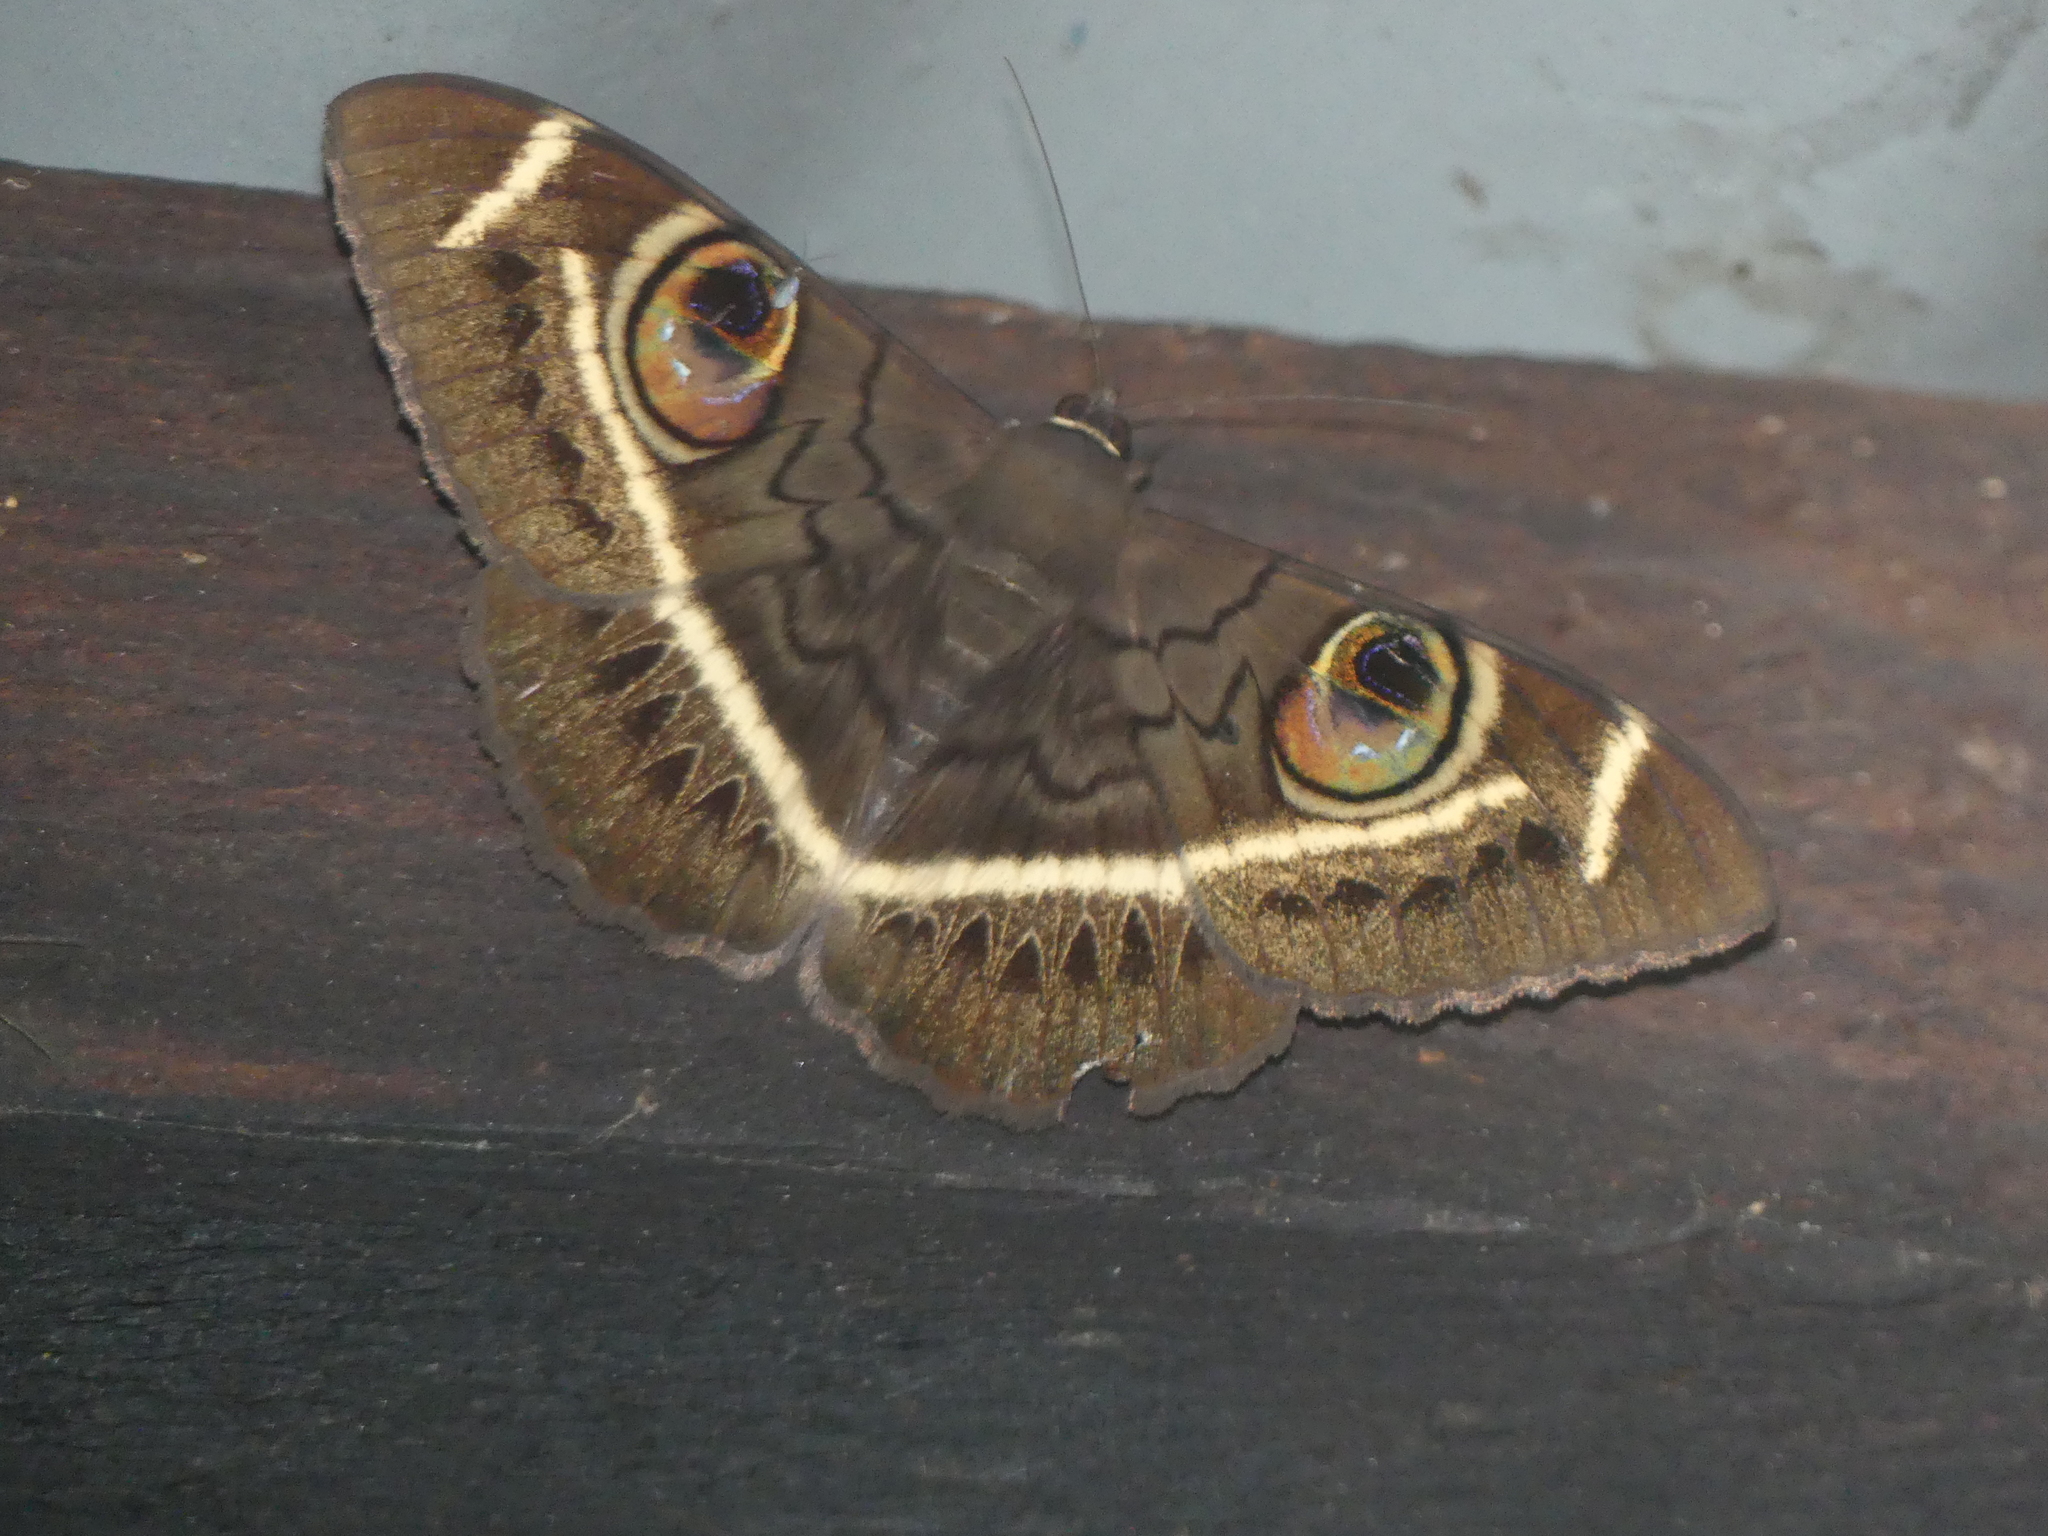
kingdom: Animalia
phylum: Arthropoda
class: Insecta
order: Lepidoptera
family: Erebidae
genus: Cyligramma
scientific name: Cyligramma latona
